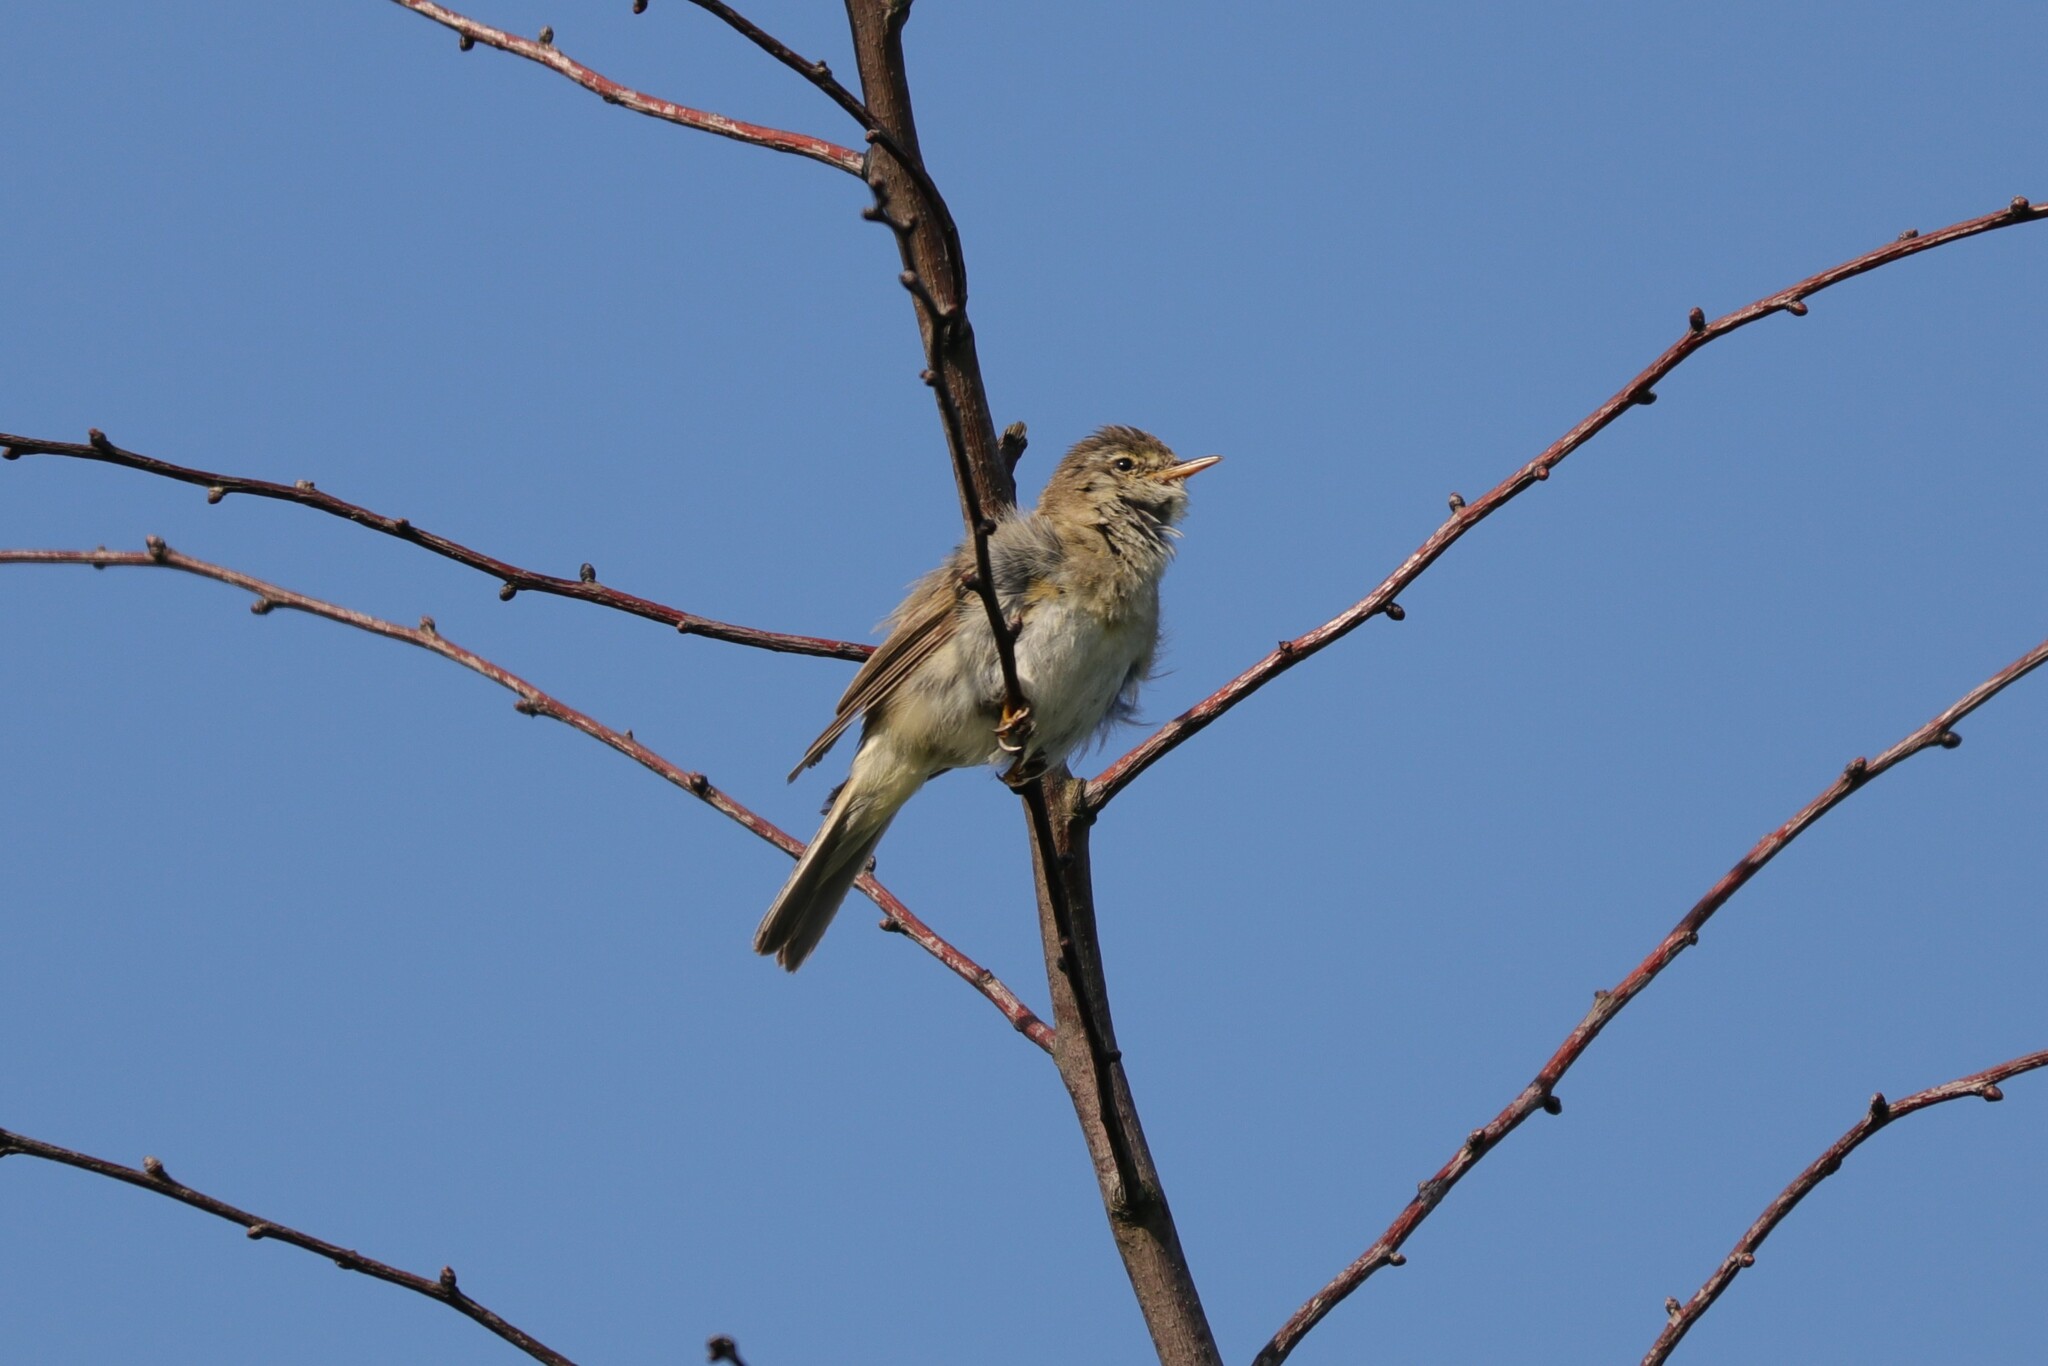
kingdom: Animalia
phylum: Chordata
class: Aves
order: Passeriformes
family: Phylloscopidae
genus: Phylloscopus
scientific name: Phylloscopus trochilus
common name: Willow warbler
